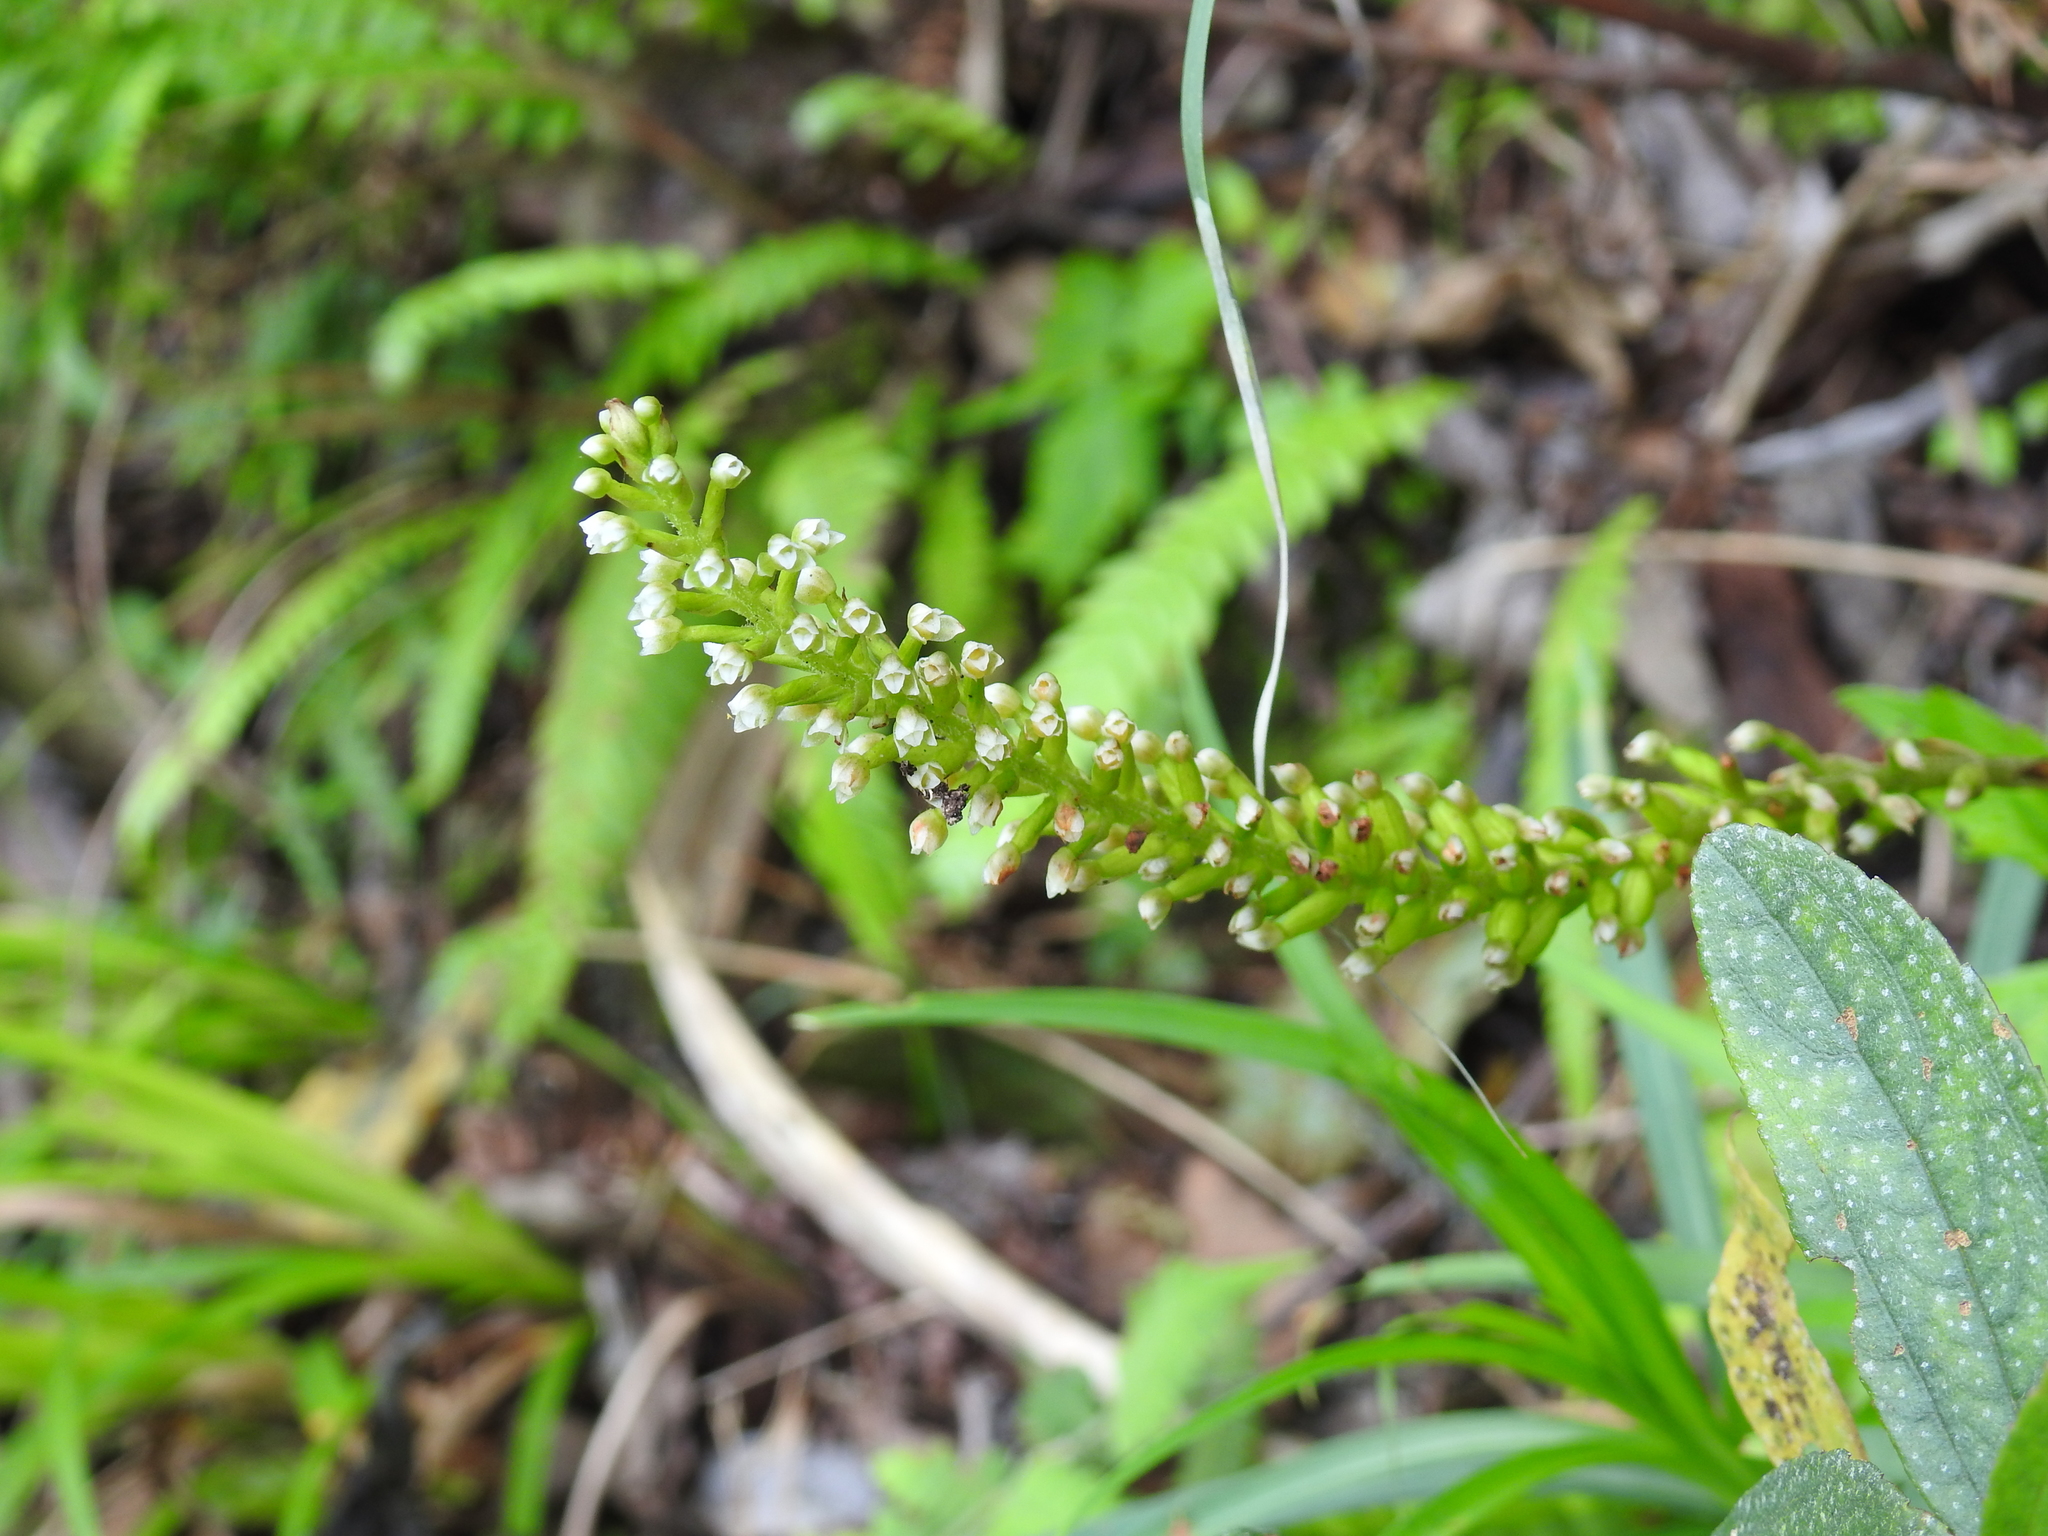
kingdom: Plantae
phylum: Tracheophyta
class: Liliopsida
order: Asparagales
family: Orchidaceae
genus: Goodyera
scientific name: Goodyera procera
